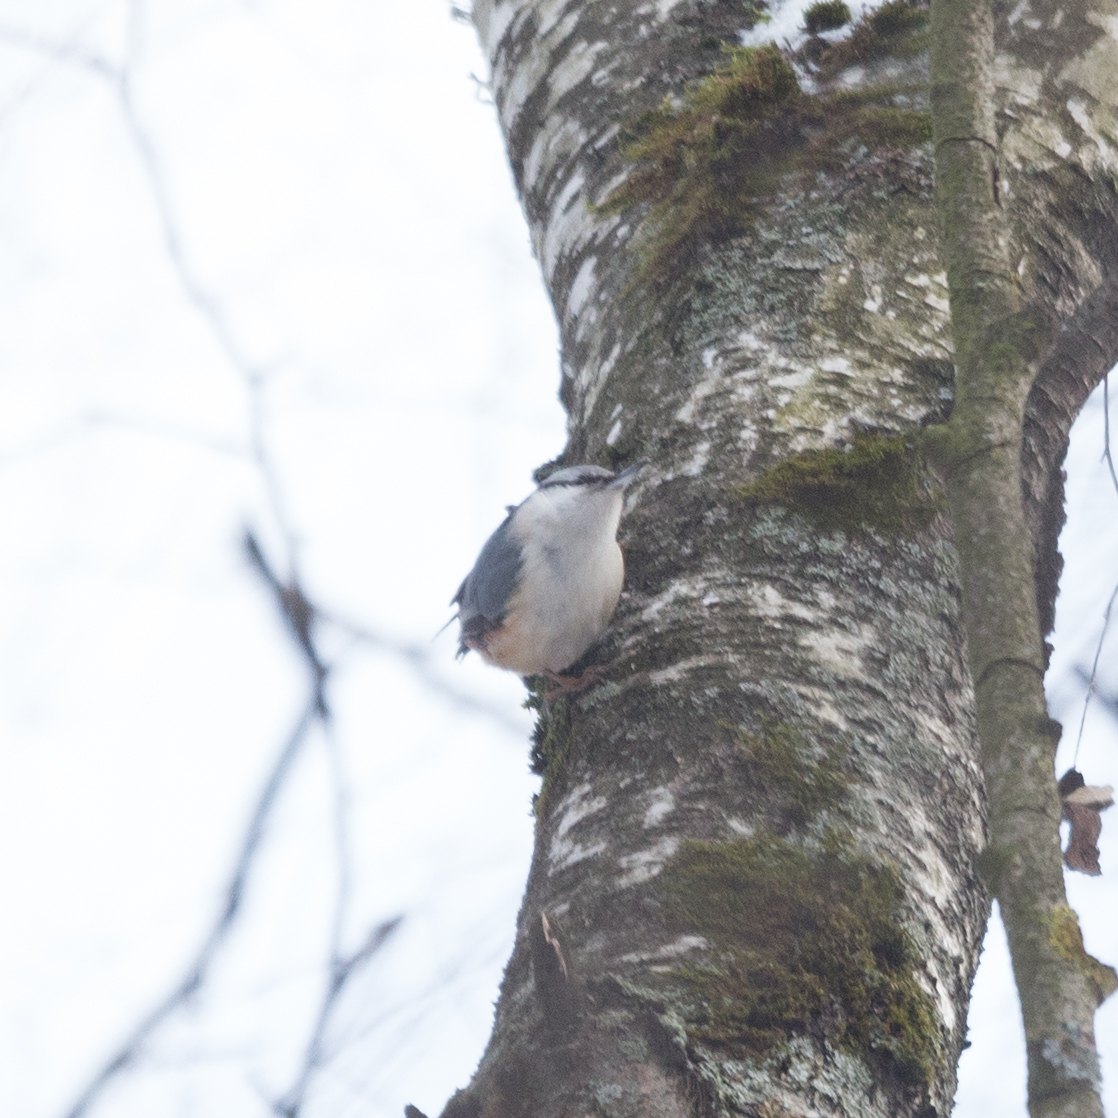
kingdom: Animalia
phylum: Chordata
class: Aves
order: Passeriformes
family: Sittidae
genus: Sitta
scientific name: Sitta europaea
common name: Eurasian nuthatch
